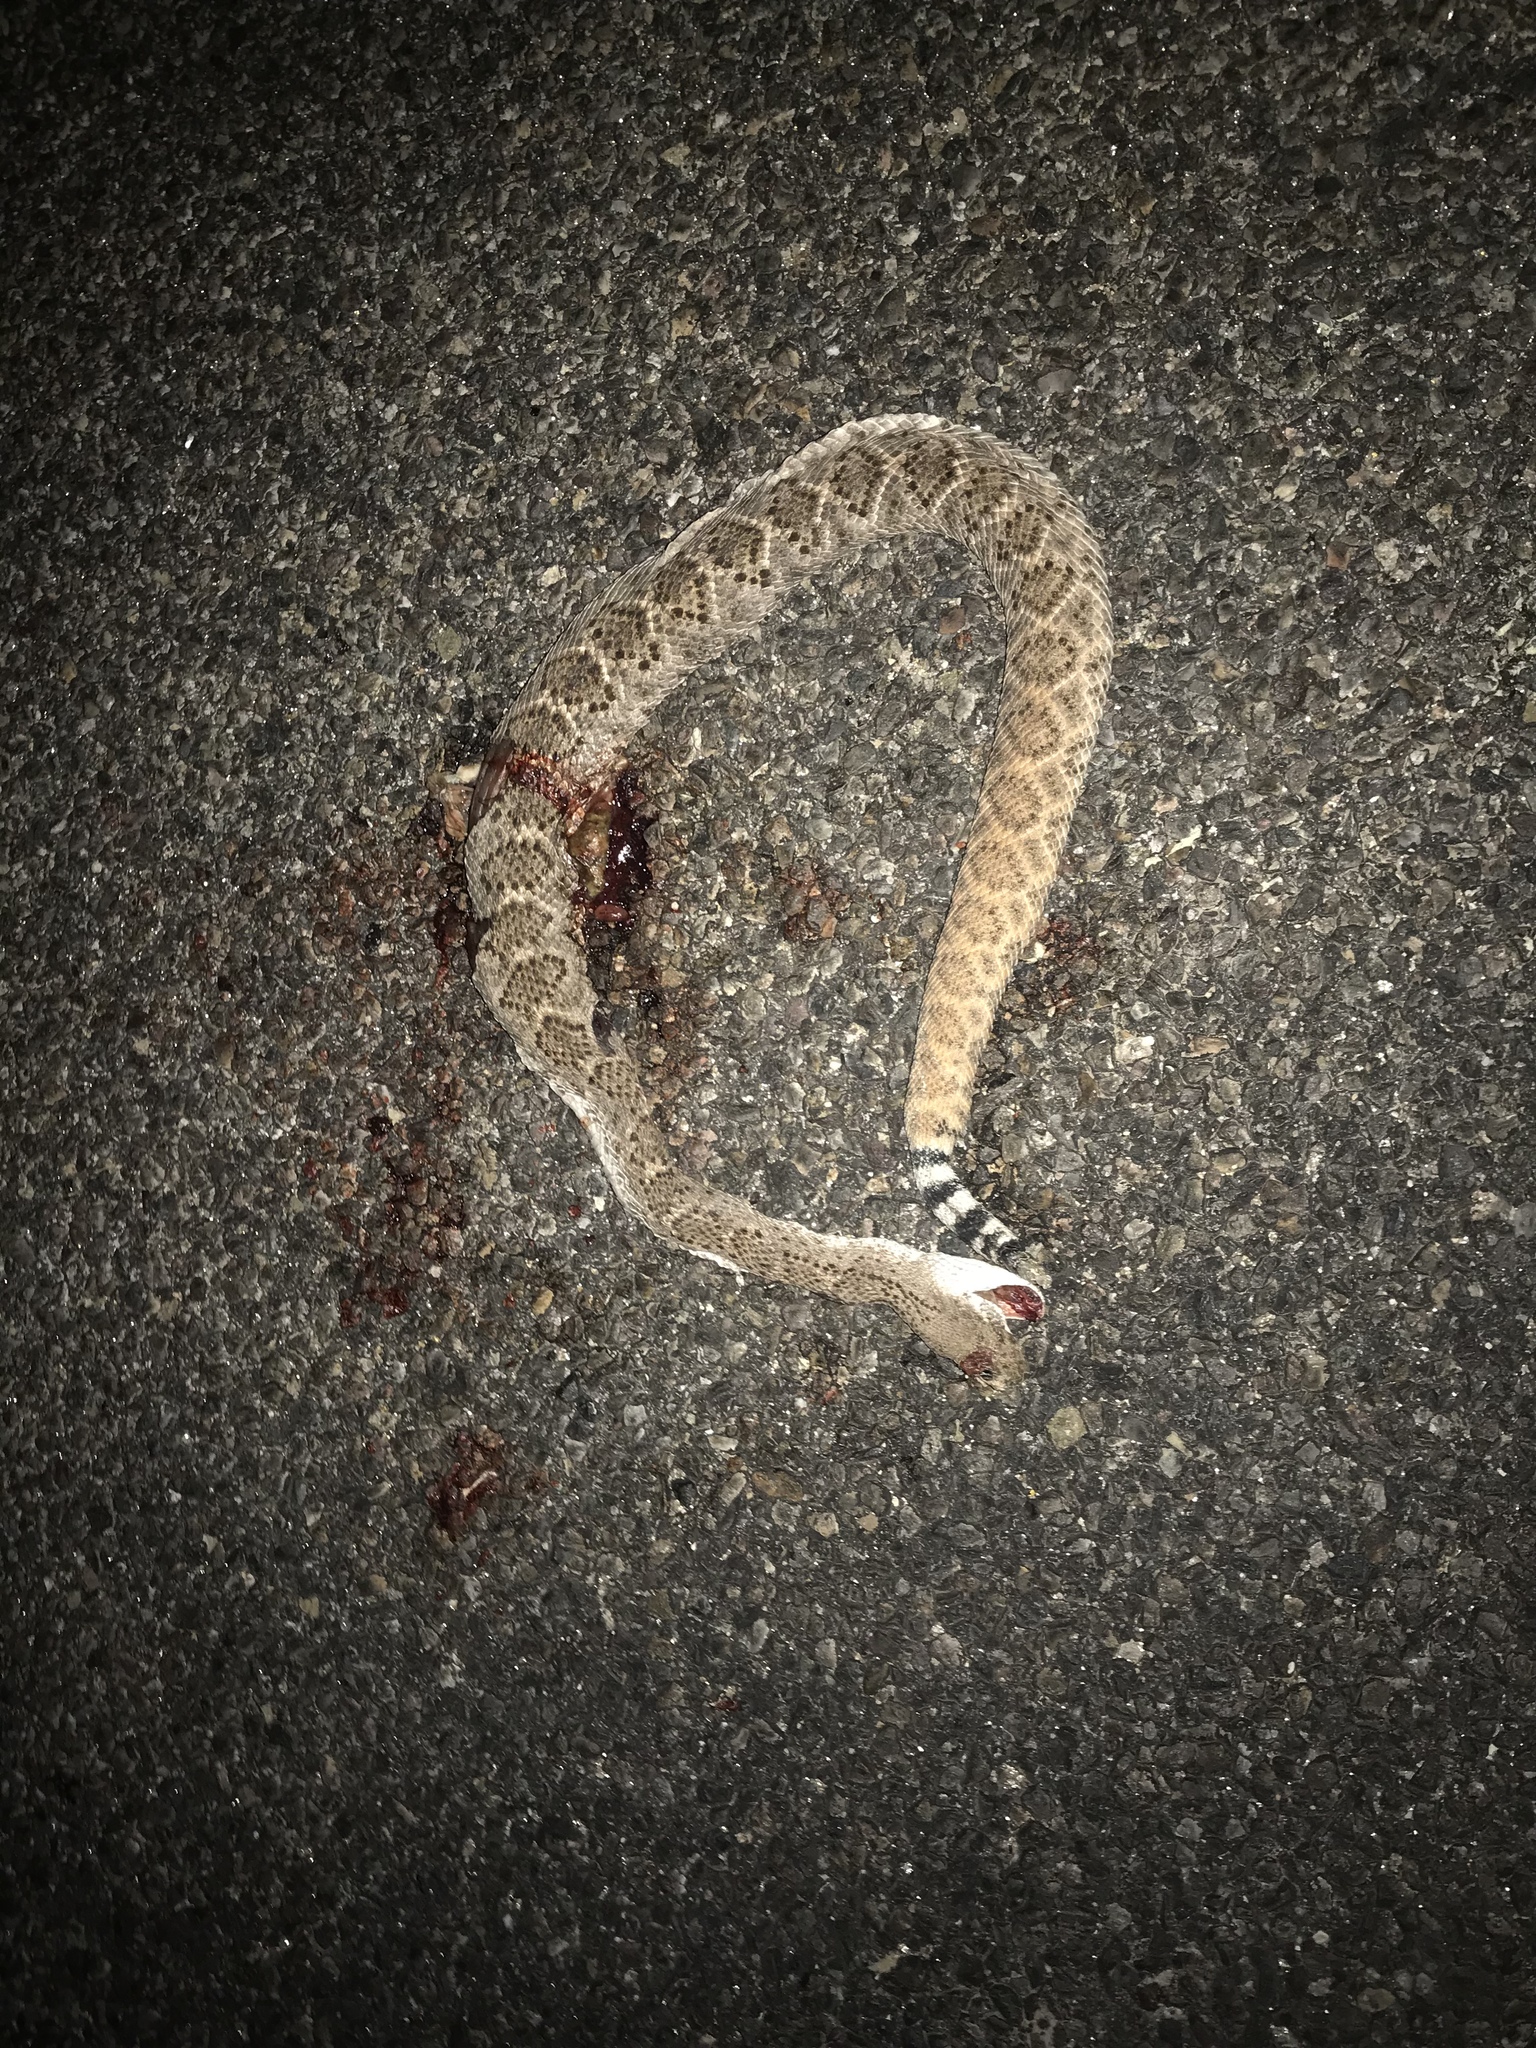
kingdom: Animalia
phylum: Chordata
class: Squamata
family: Viperidae
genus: Crotalus
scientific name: Crotalus atrox
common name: Western diamond-backed rattlesnake
